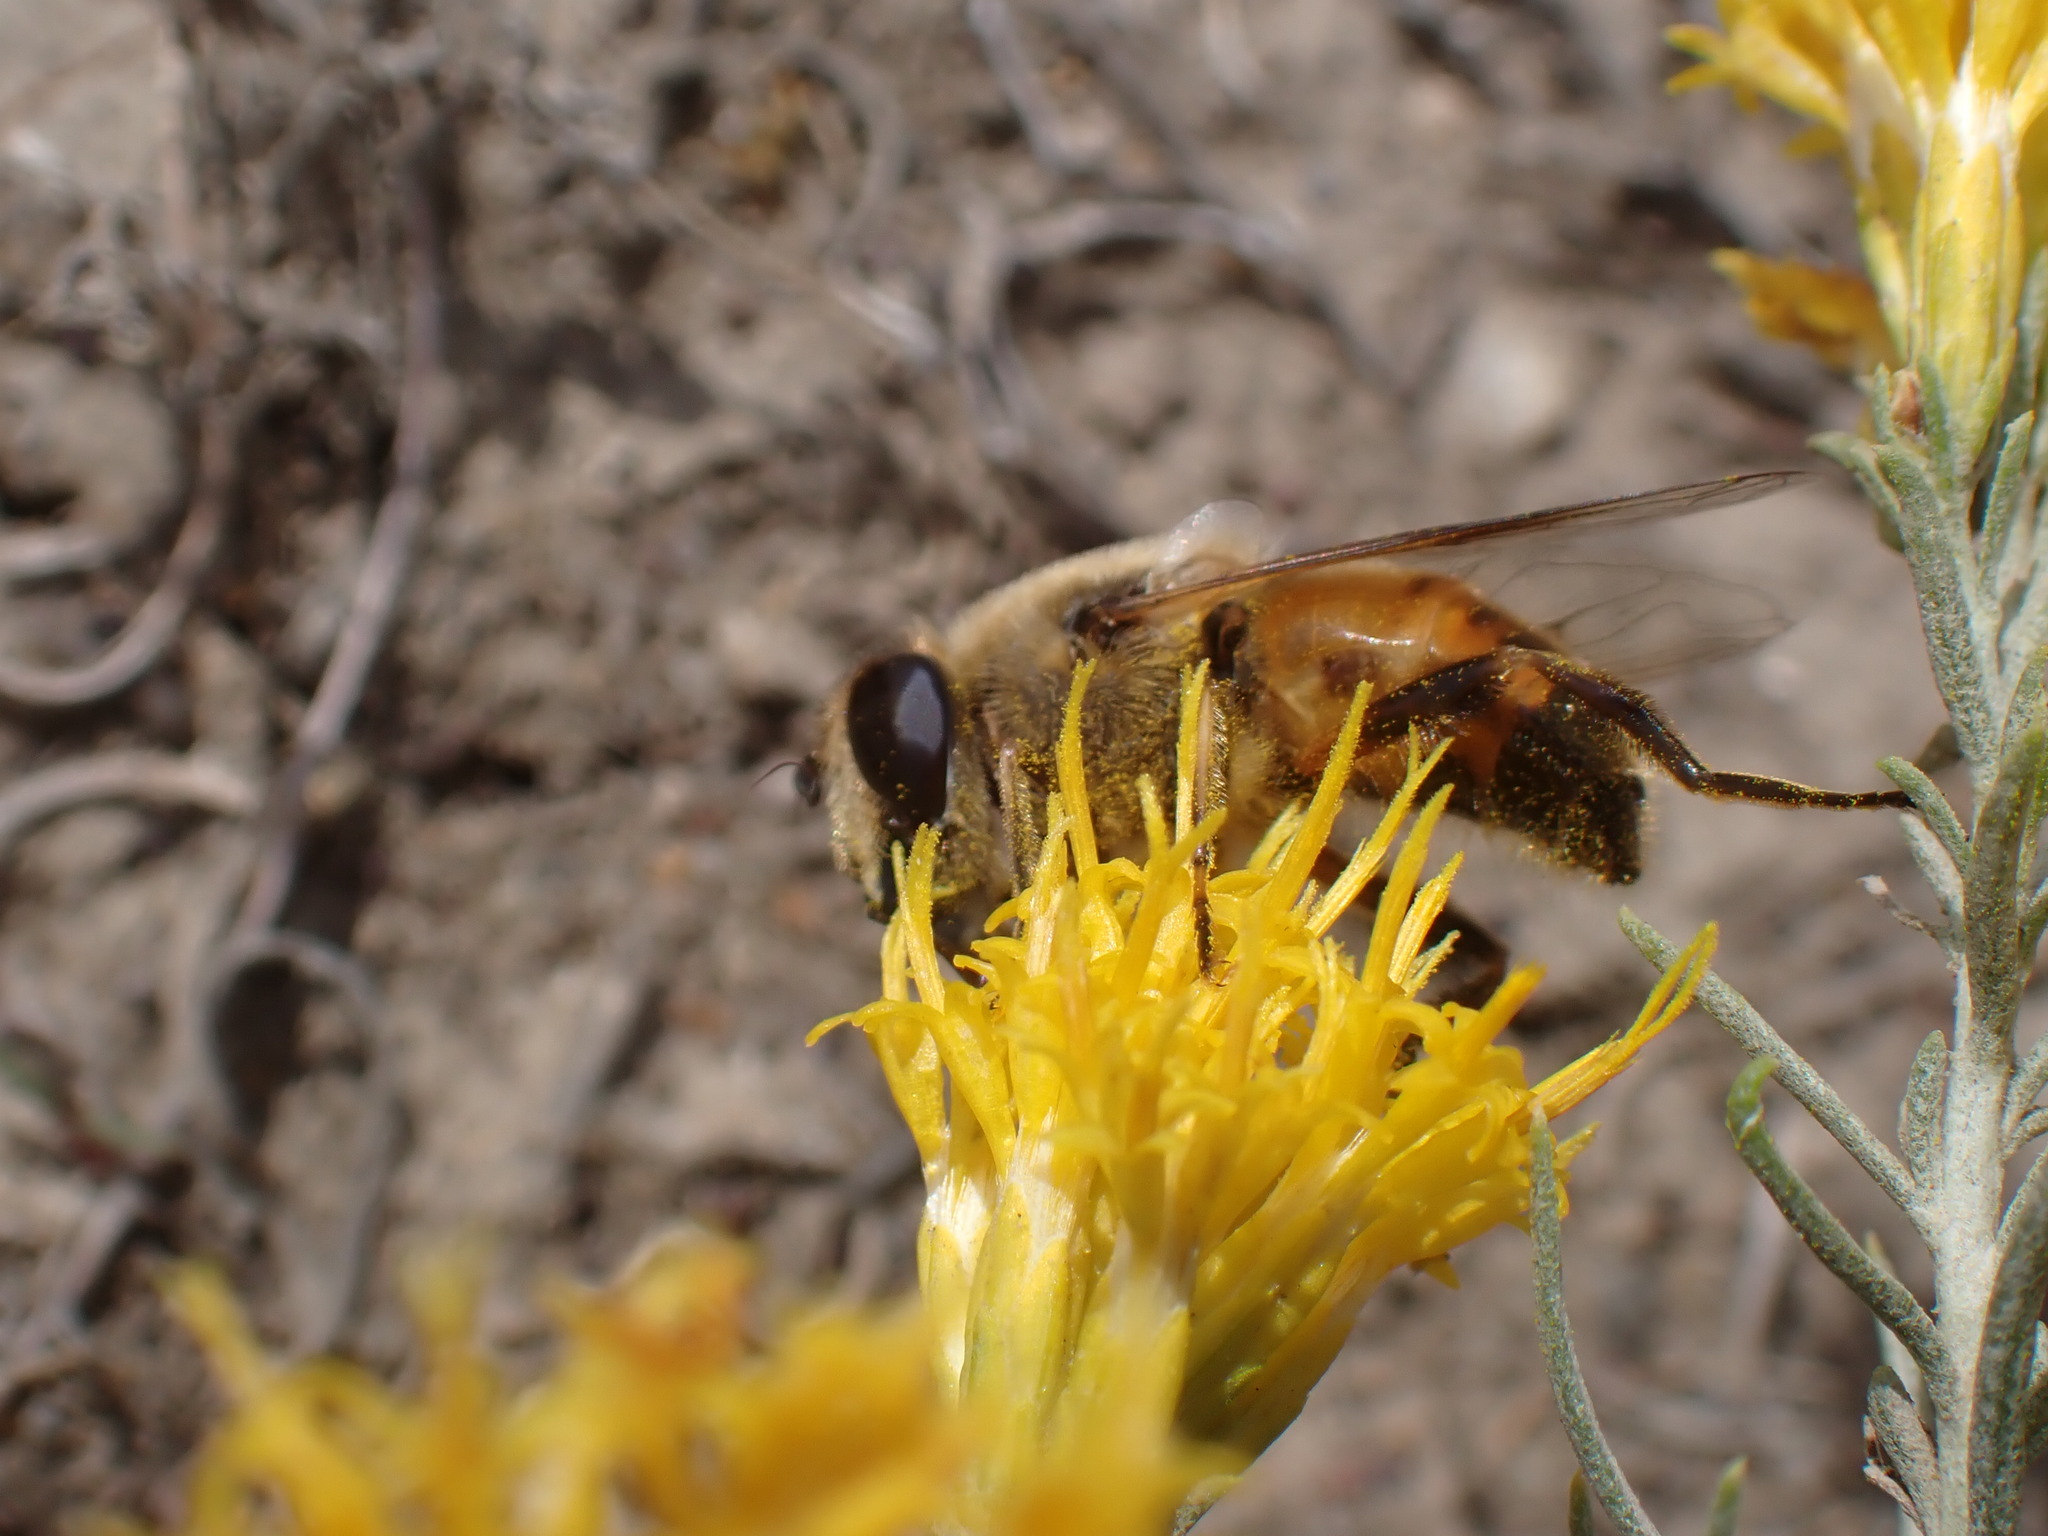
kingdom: Animalia
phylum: Arthropoda
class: Insecta
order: Diptera
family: Syrphidae
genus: Eristalis
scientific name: Eristalis tenax
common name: Drone fly
